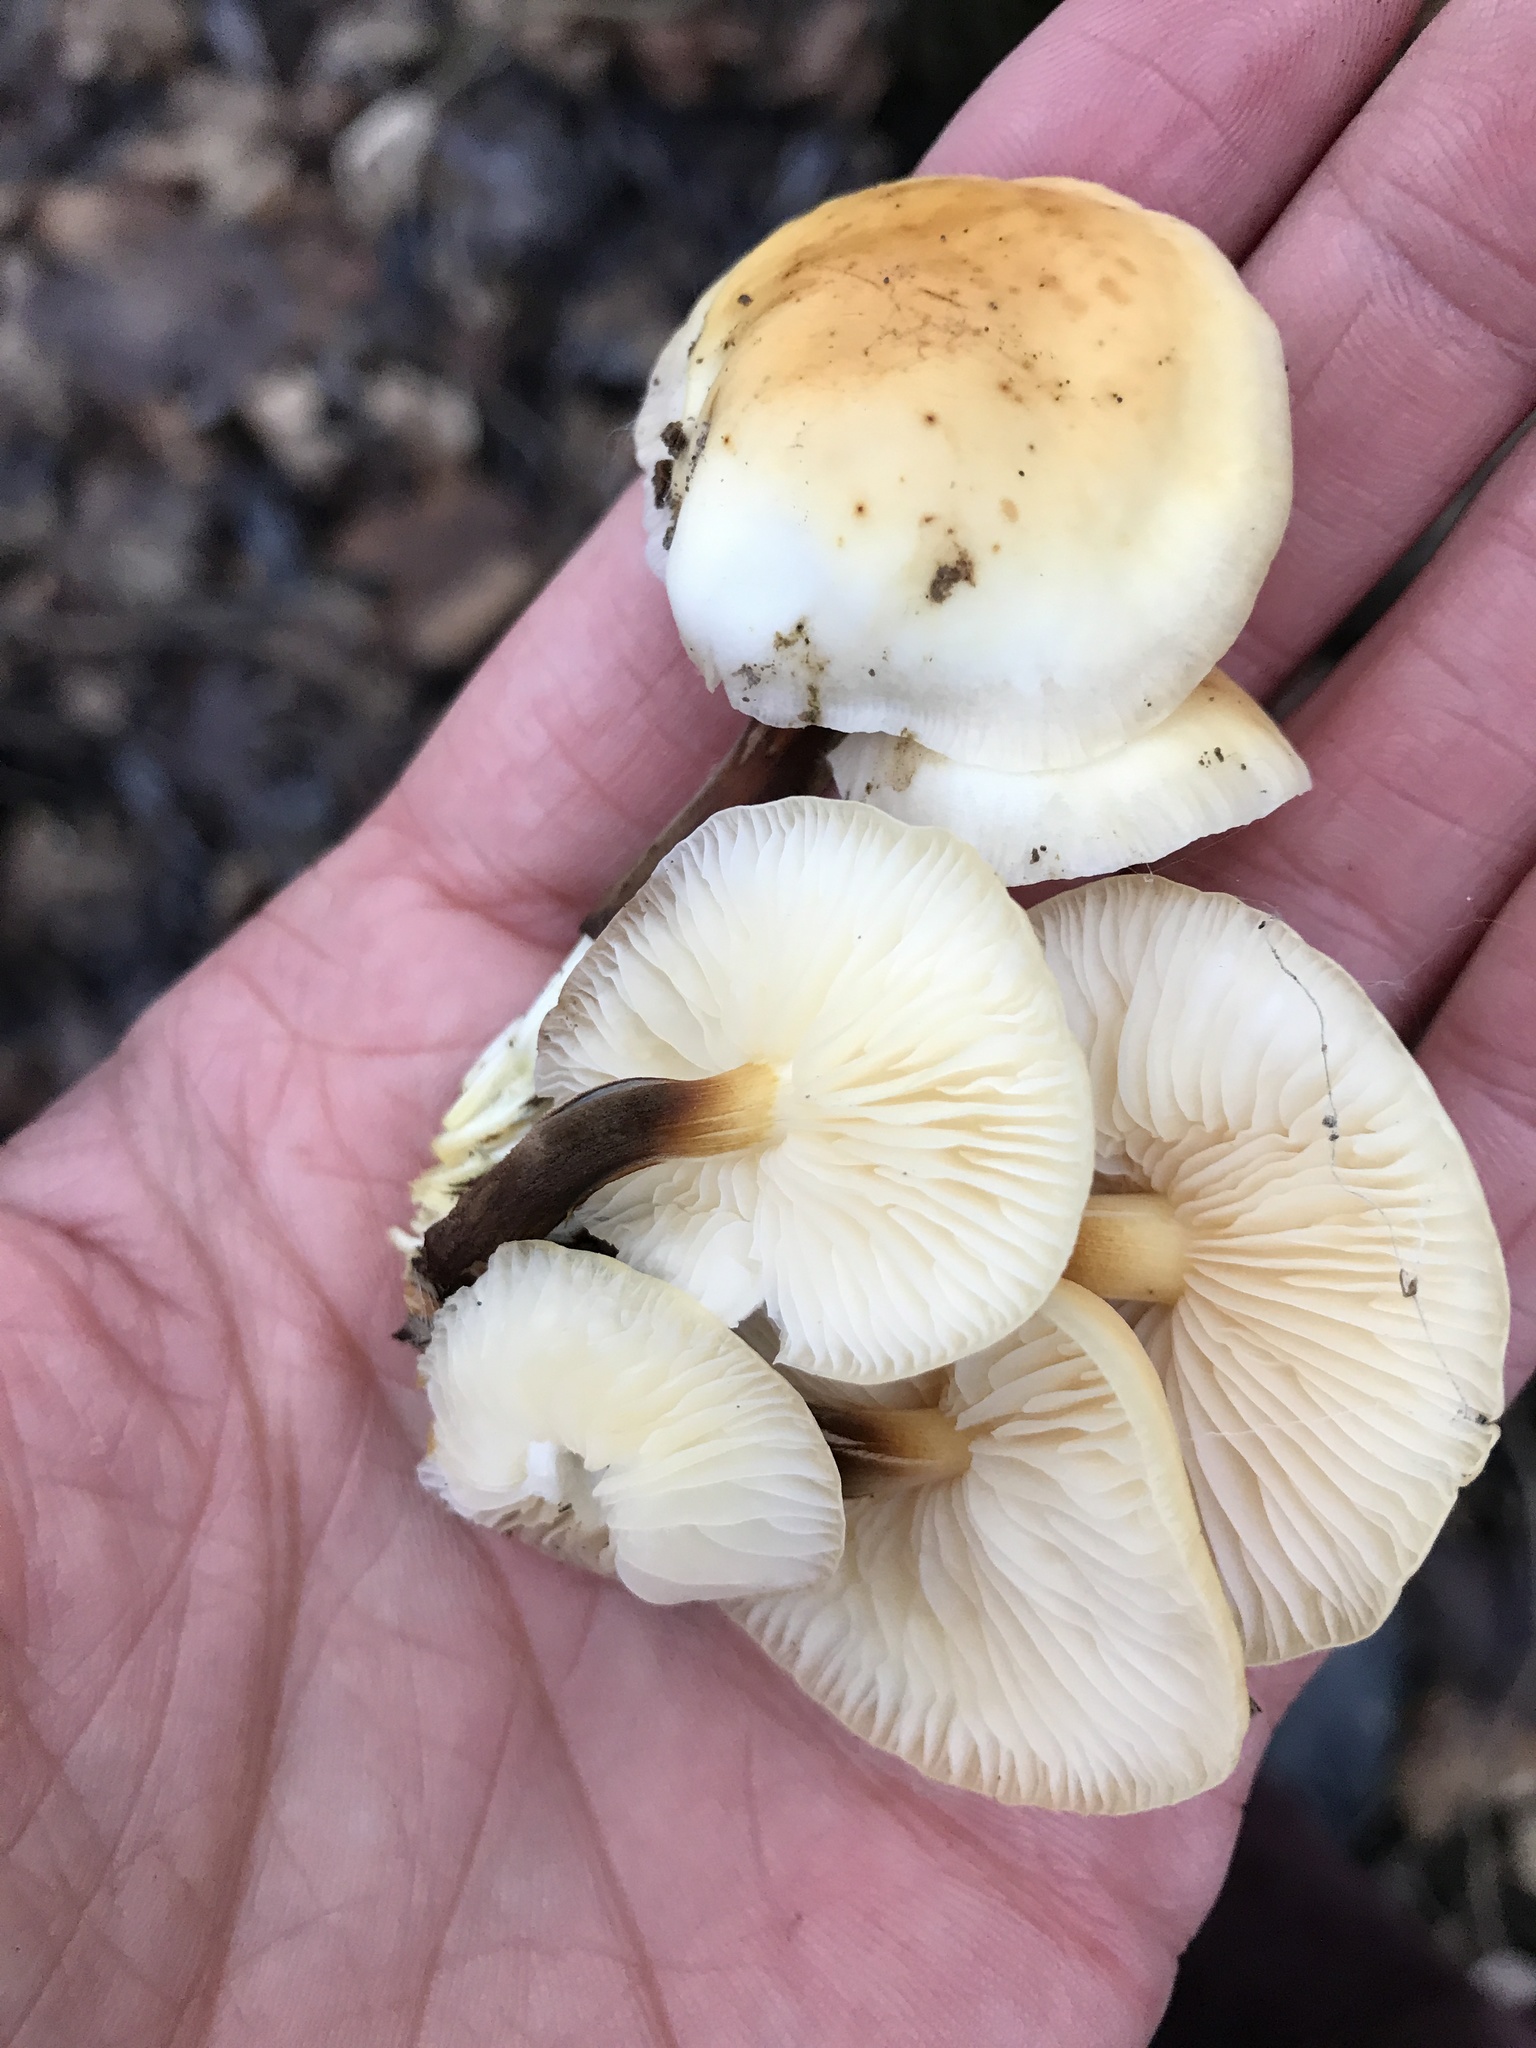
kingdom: Fungi
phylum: Basidiomycota
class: Agaricomycetes
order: Agaricales
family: Physalacriaceae
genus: Flammulina
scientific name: Flammulina
